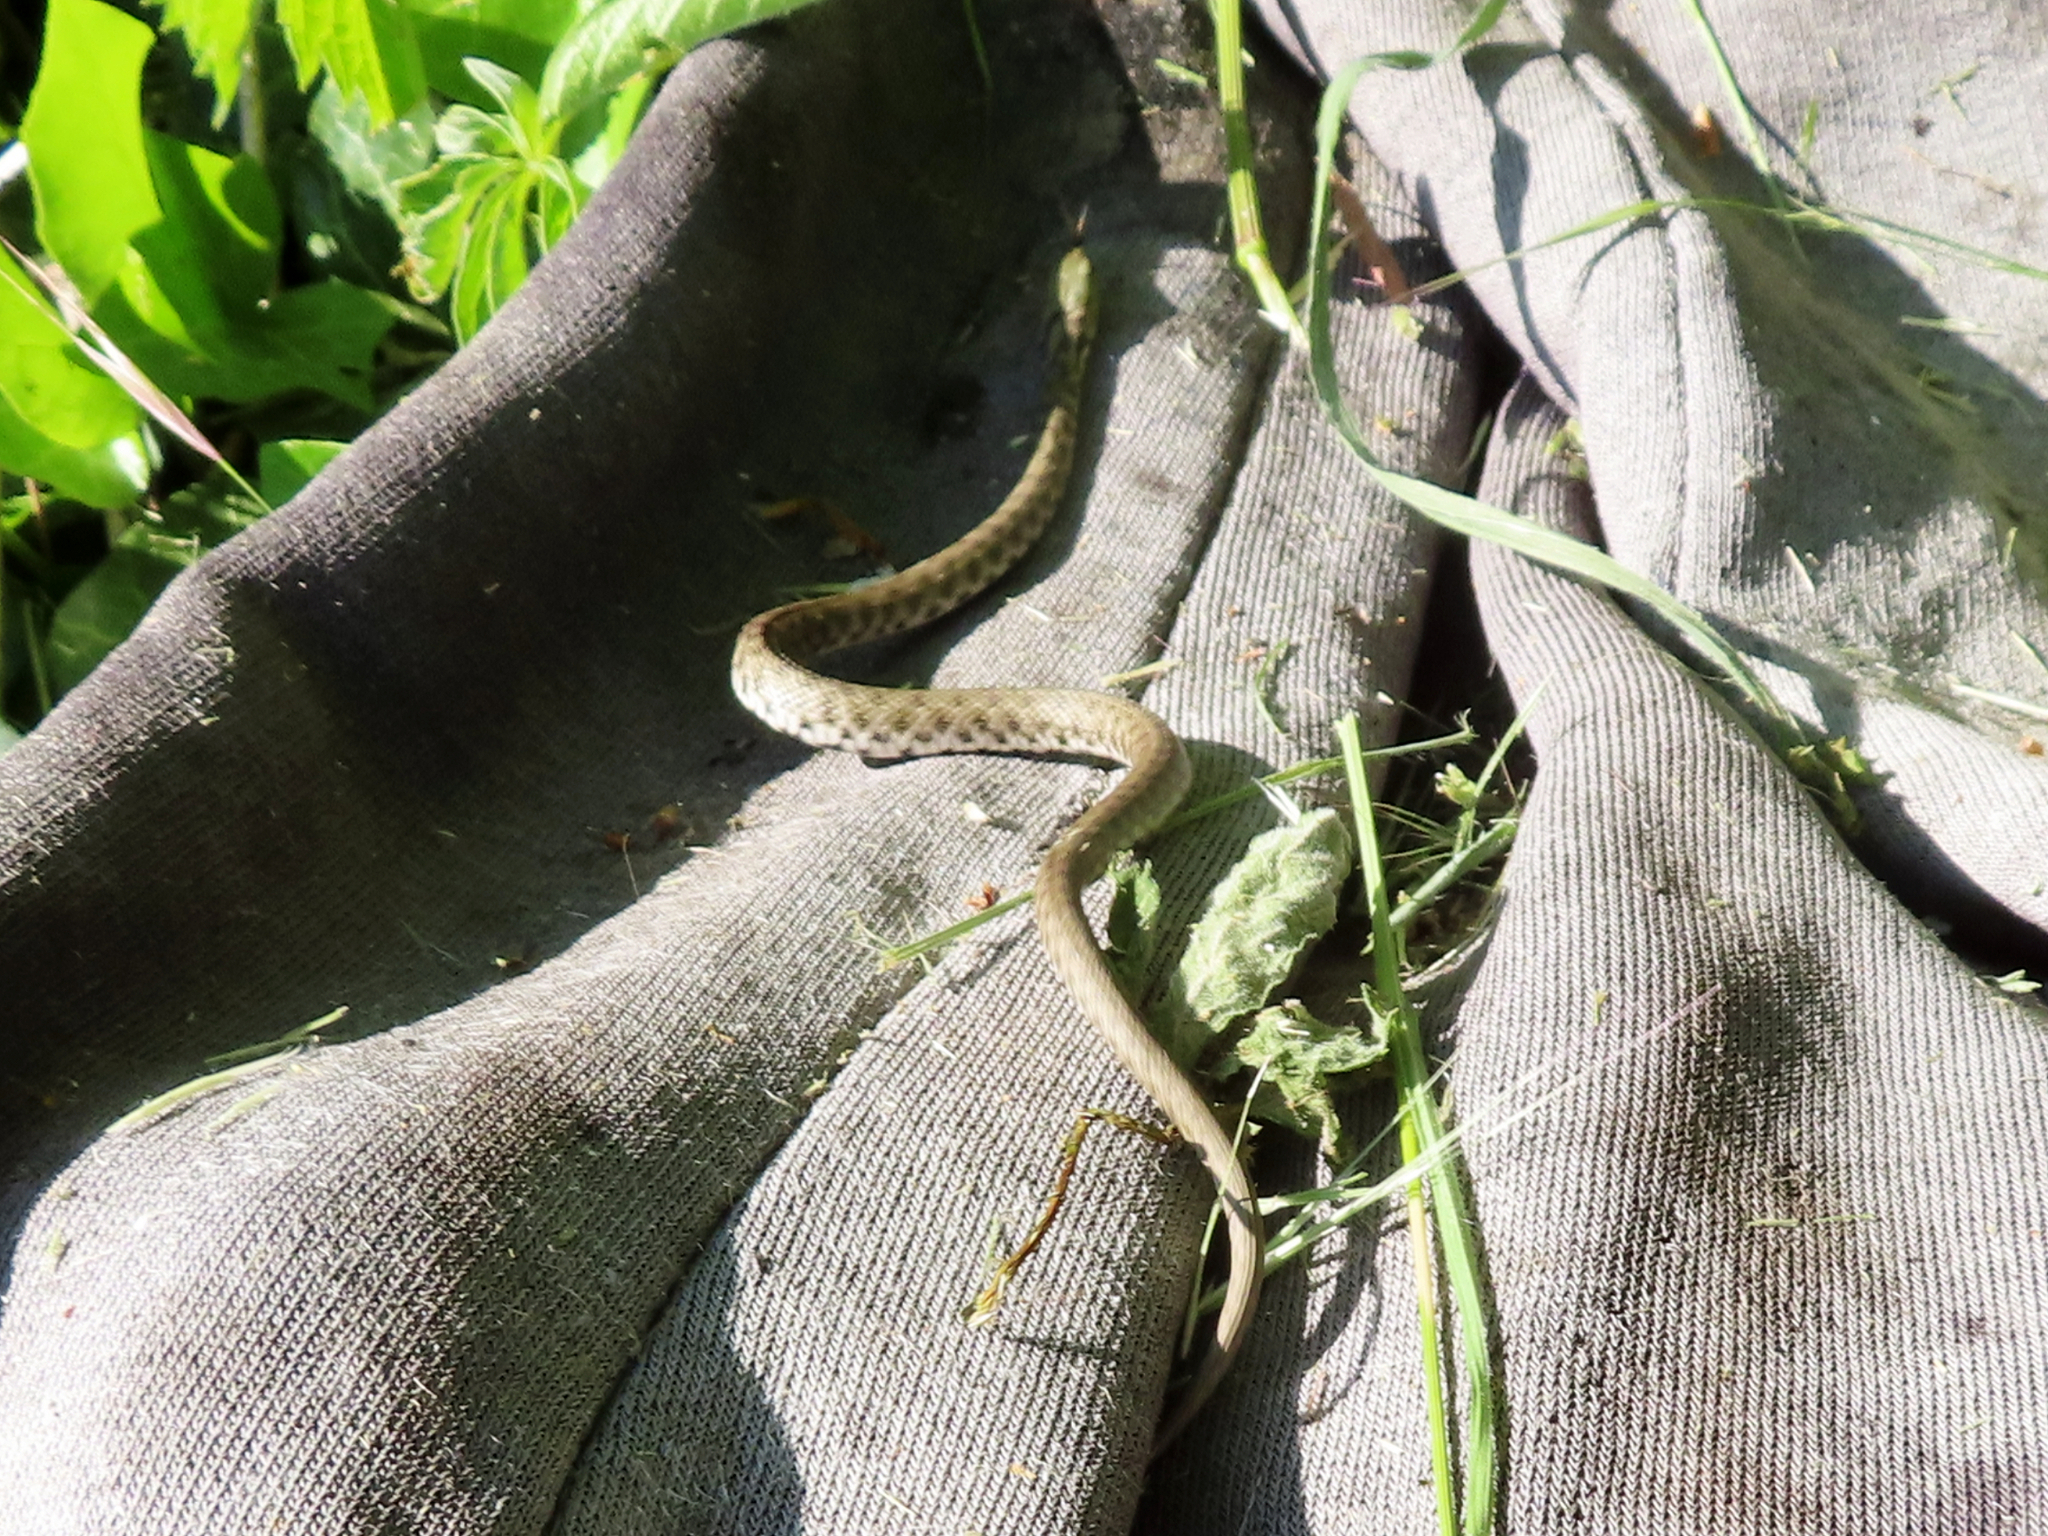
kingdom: Animalia
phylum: Chordata
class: Squamata
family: Colubridae
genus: Natrix
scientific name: Natrix tessellata
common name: Dice snake
